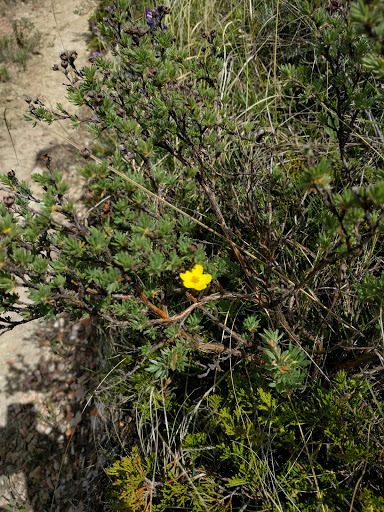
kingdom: Plantae
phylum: Tracheophyta
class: Magnoliopsida
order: Rosales
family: Rosaceae
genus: Dasiphora
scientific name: Dasiphora fruticosa
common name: Shrubby cinquefoil
